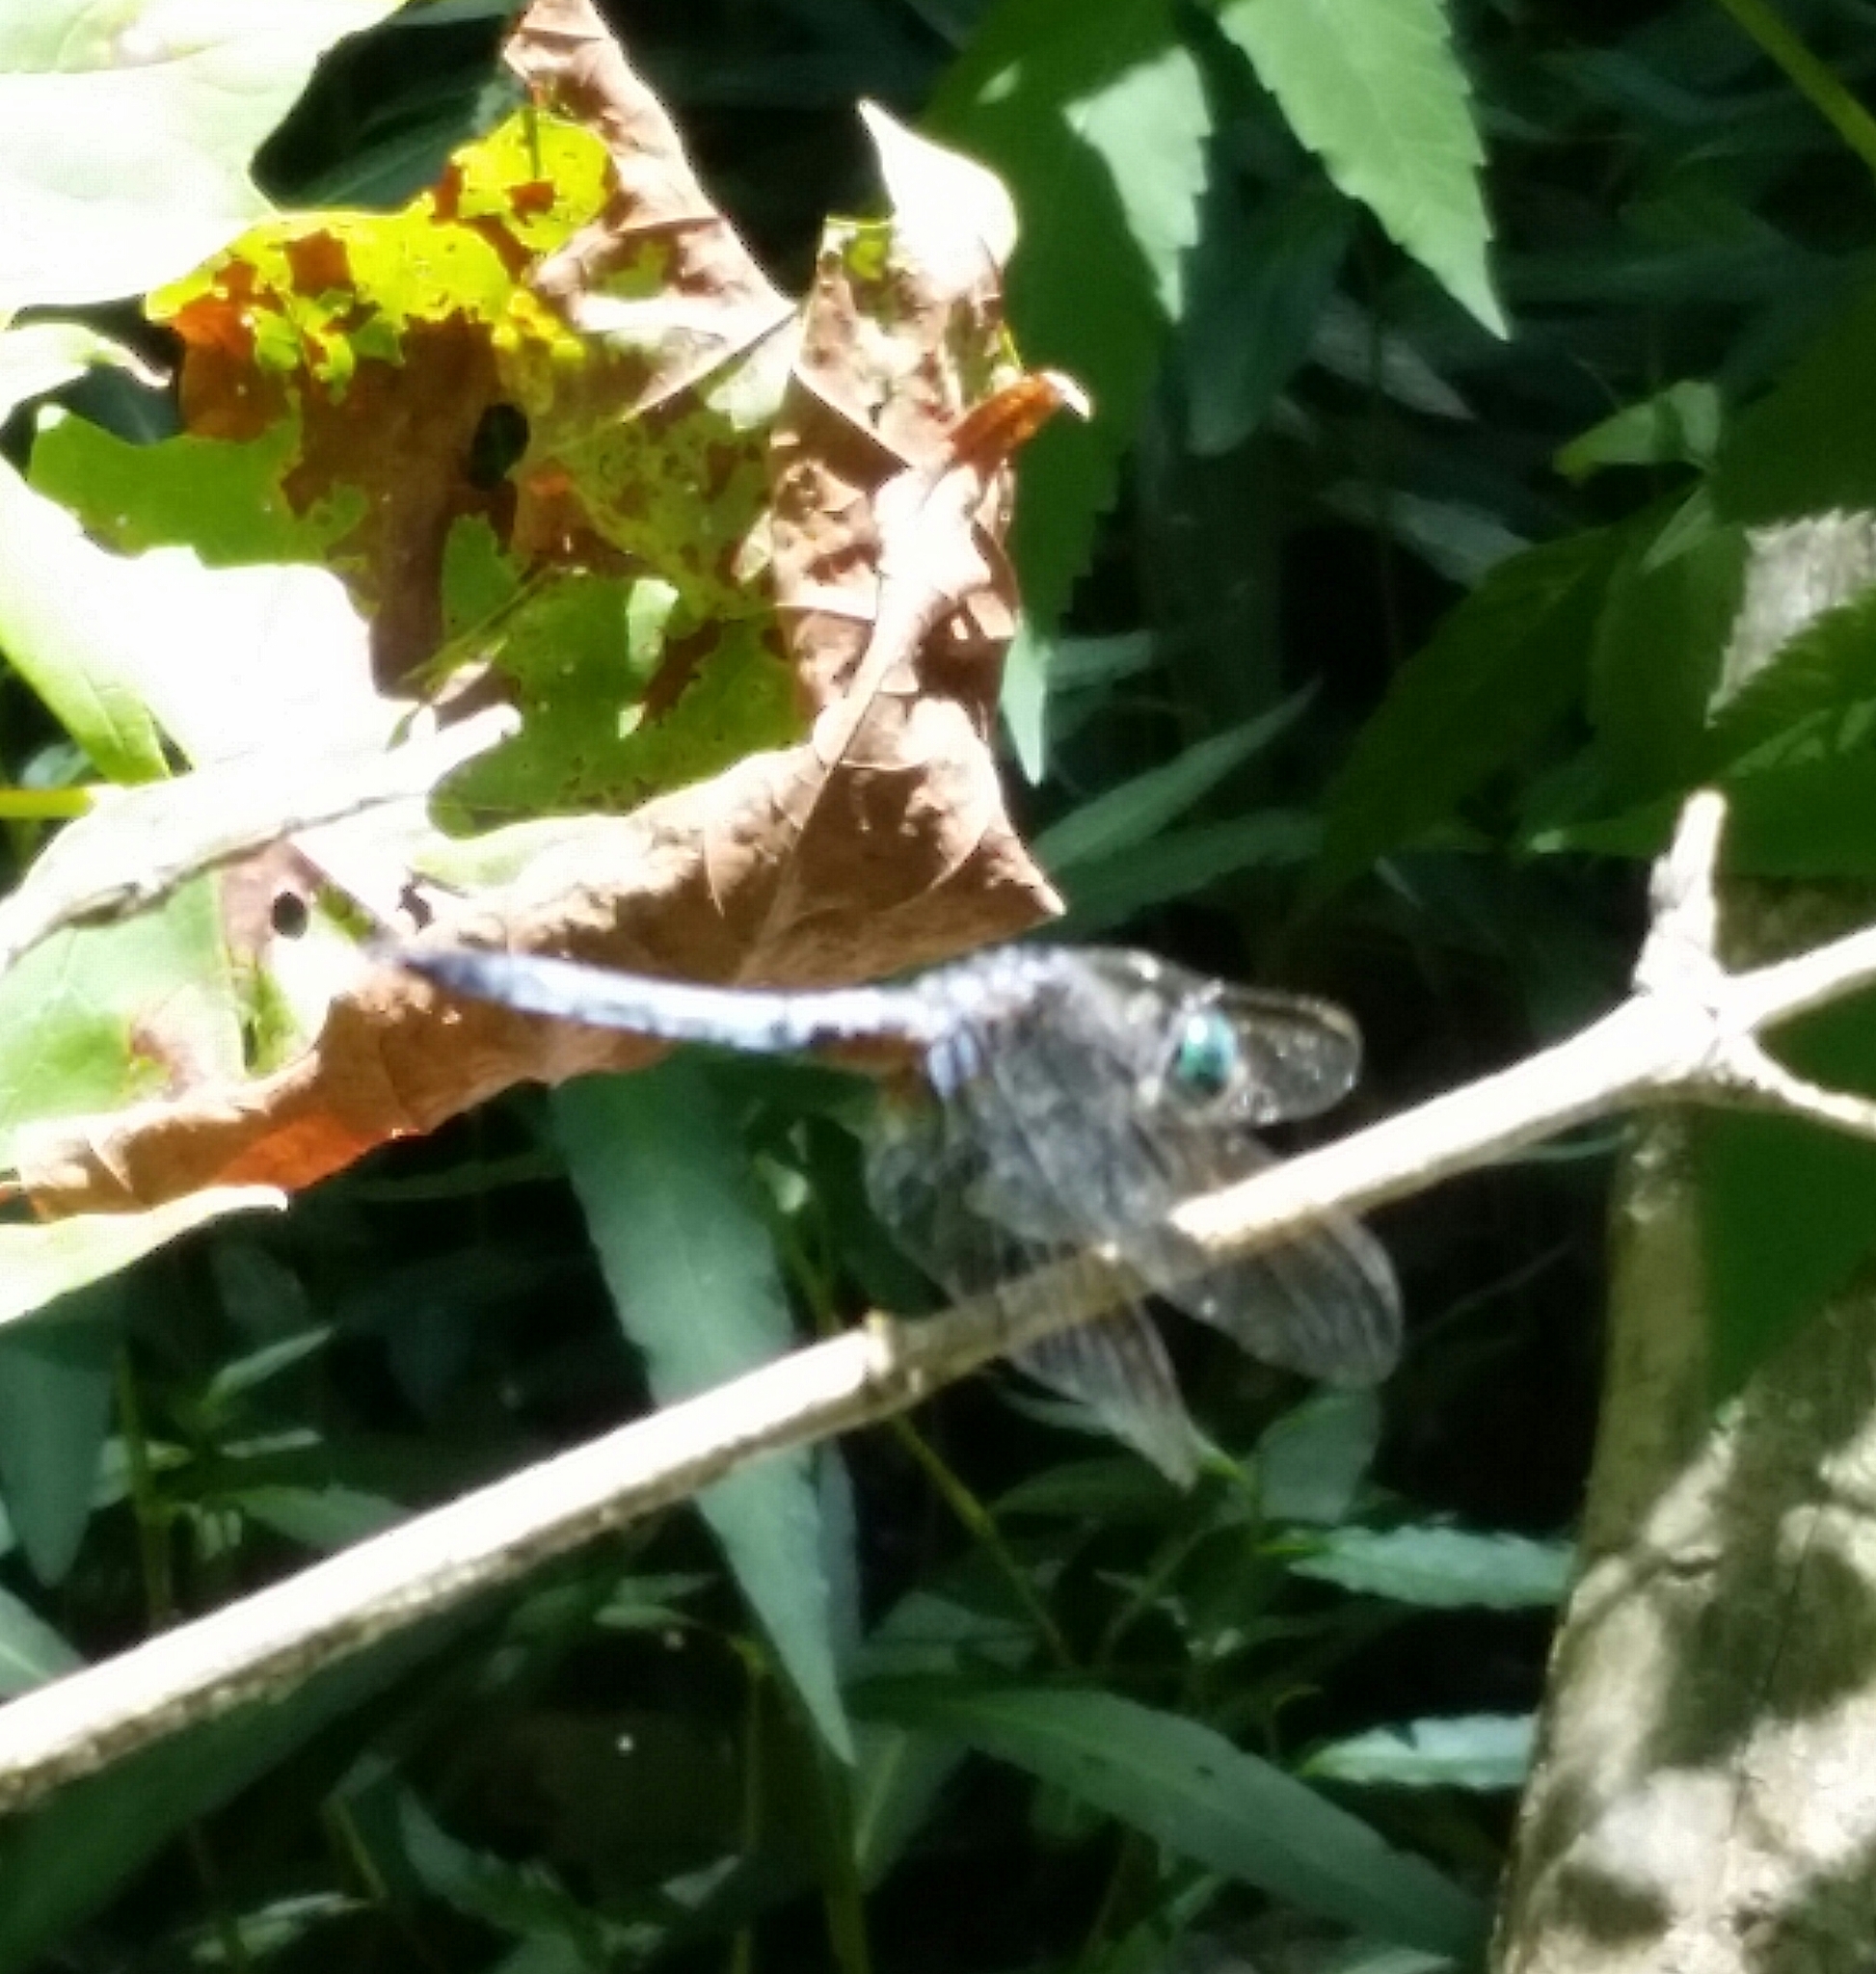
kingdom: Animalia
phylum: Arthropoda
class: Insecta
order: Odonata
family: Libellulidae
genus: Pachydiplax
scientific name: Pachydiplax longipennis
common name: Blue dasher
